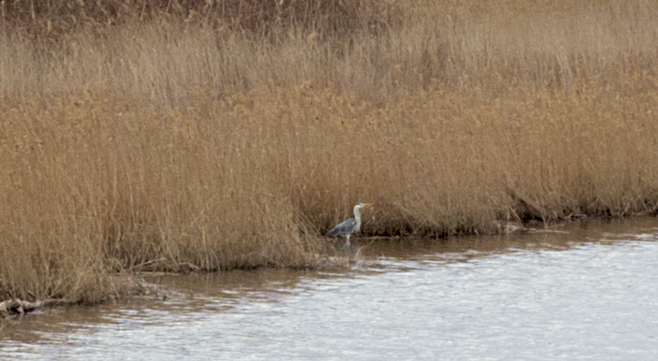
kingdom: Animalia
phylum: Chordata
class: Aves
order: Pelecaniformes
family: Ardeidae
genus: Ardea
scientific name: Ardea cinerea
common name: Grey heron
